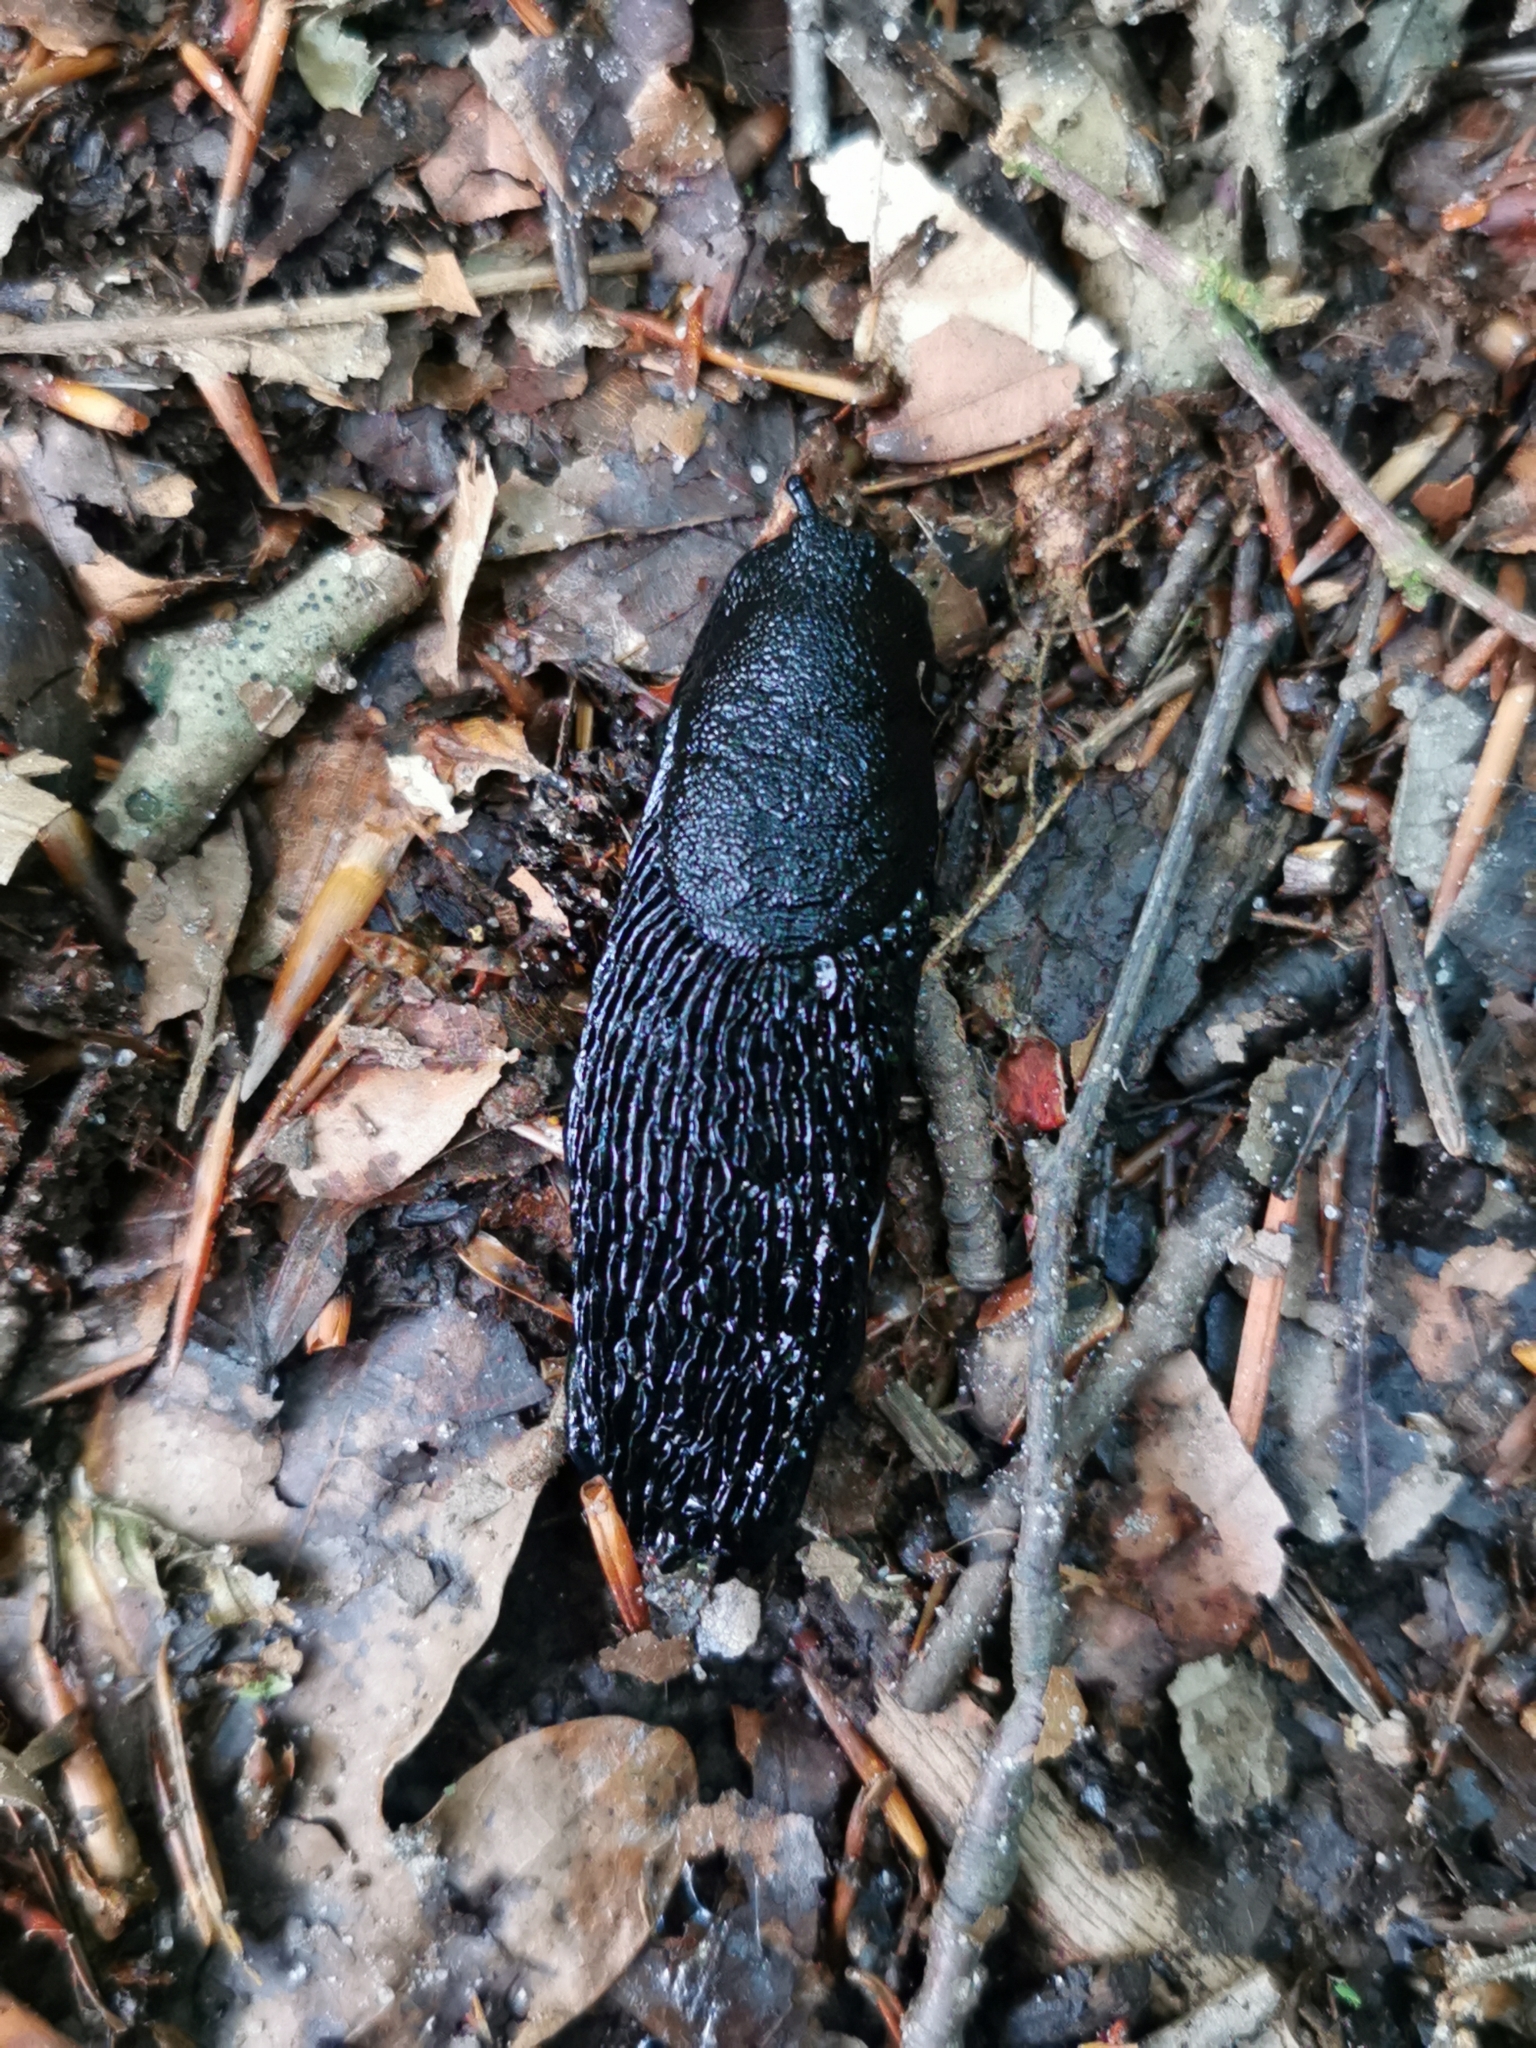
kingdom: Animalia
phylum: Mollusca
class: Gastropoda
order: Stylommatophora
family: Arionidae
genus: Arion
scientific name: Arion ater
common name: Black arion
